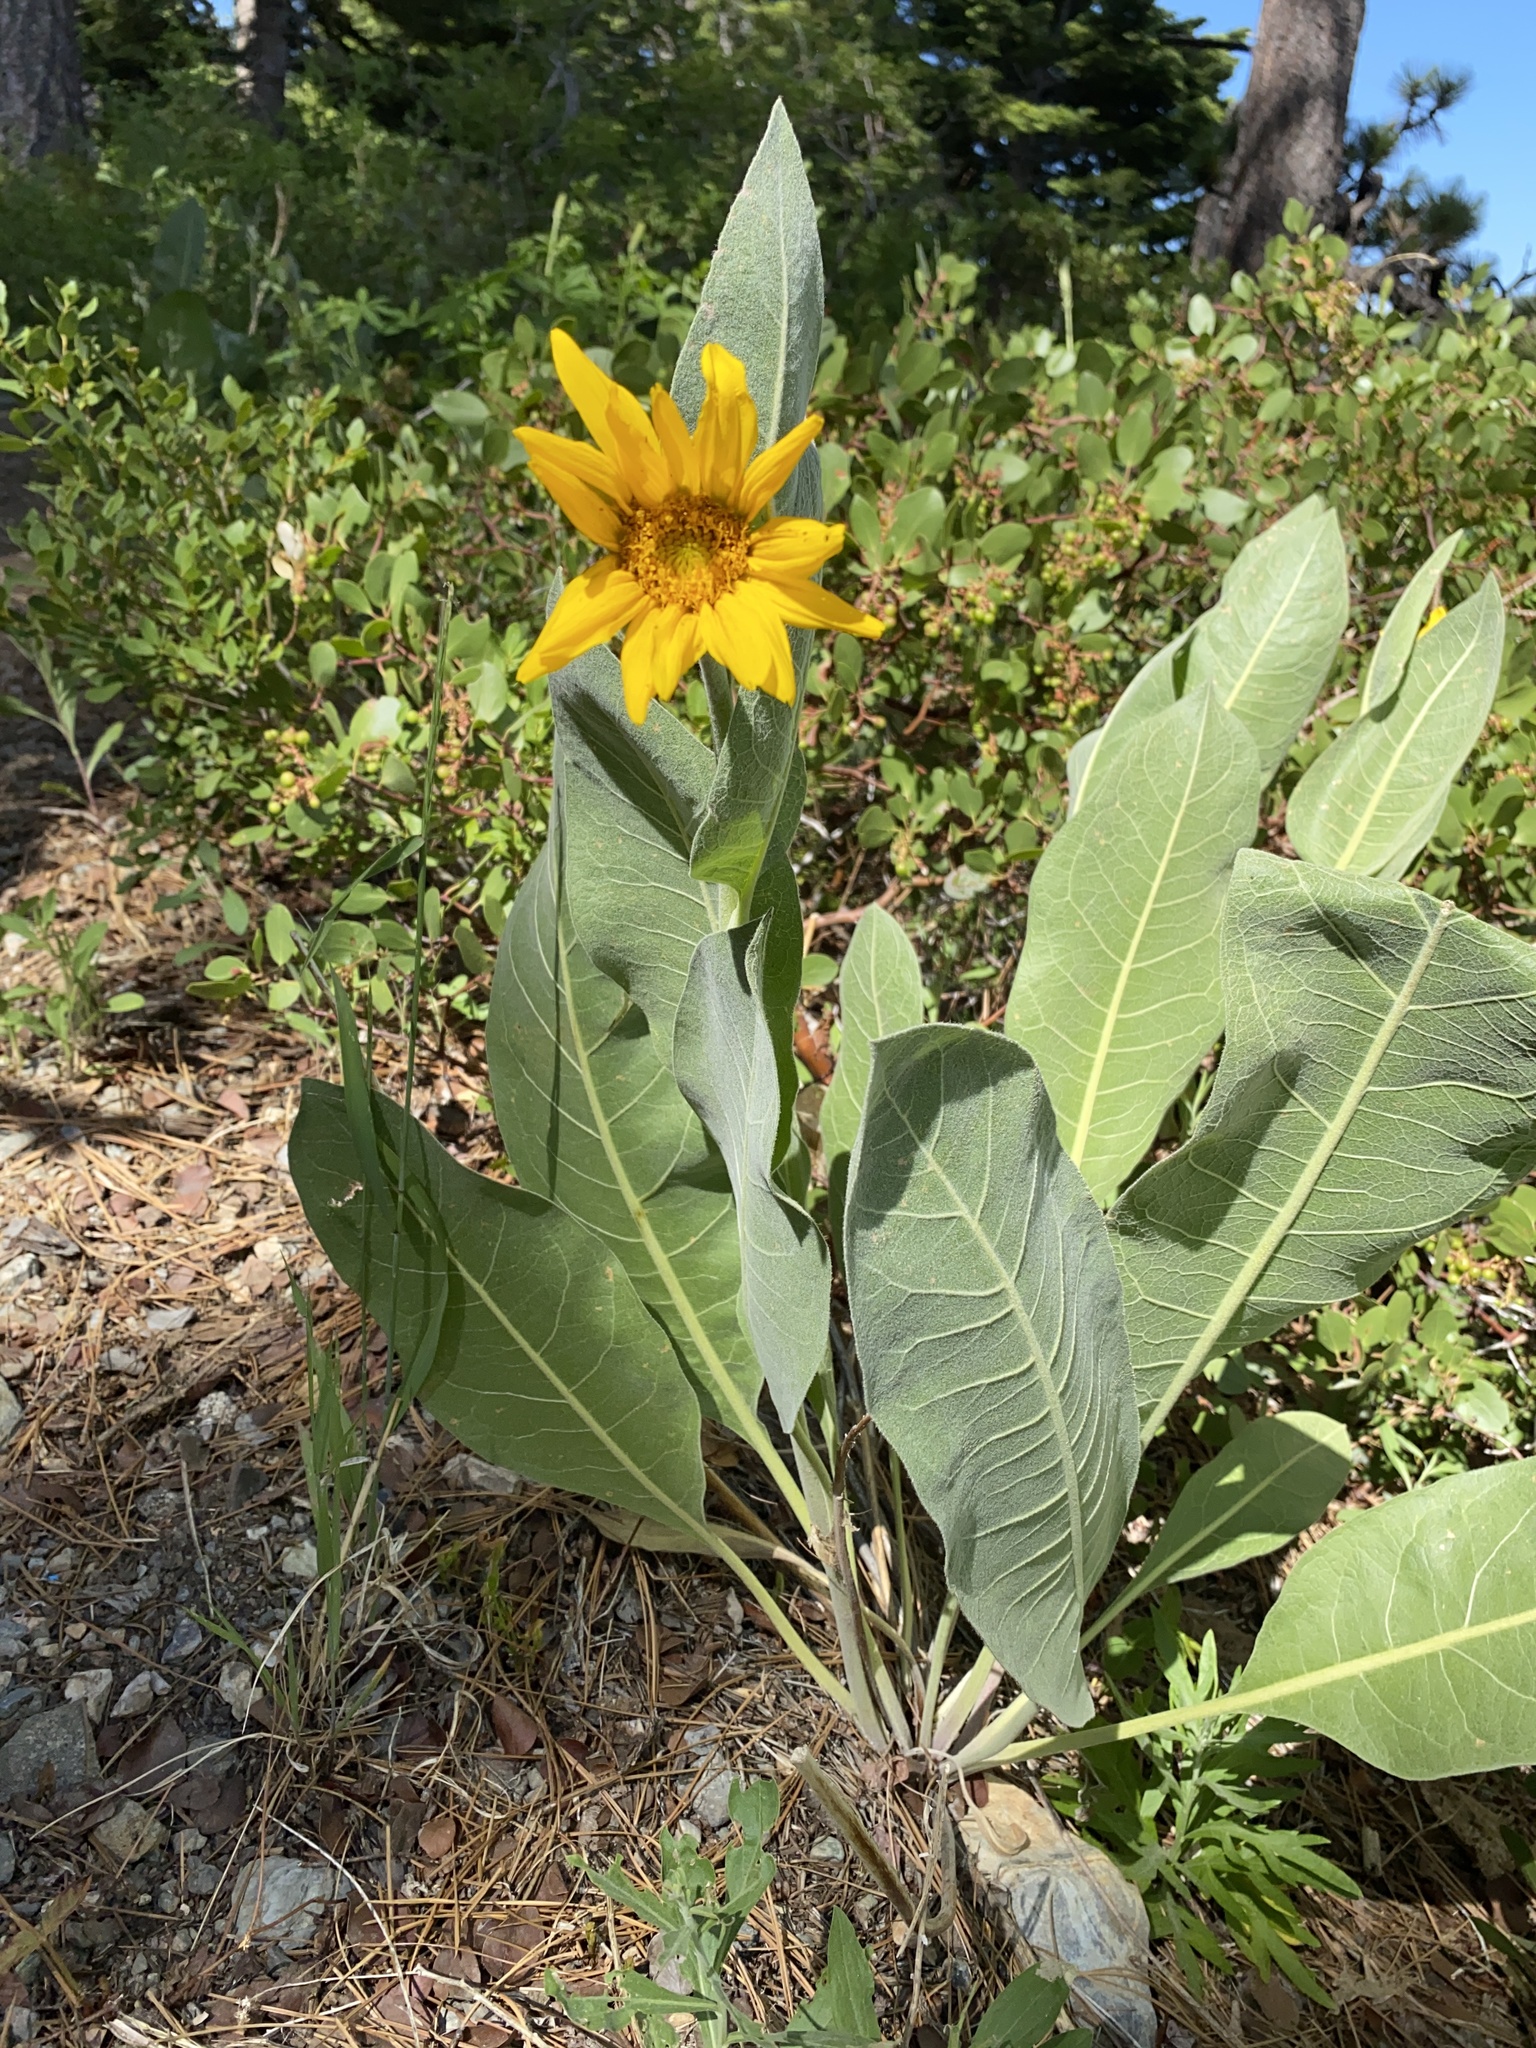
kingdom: Plantae
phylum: Tracheophyta
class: Magnoliopsida
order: Asterales
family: Asteraceae
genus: Wyethia
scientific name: Wyethia mollis
